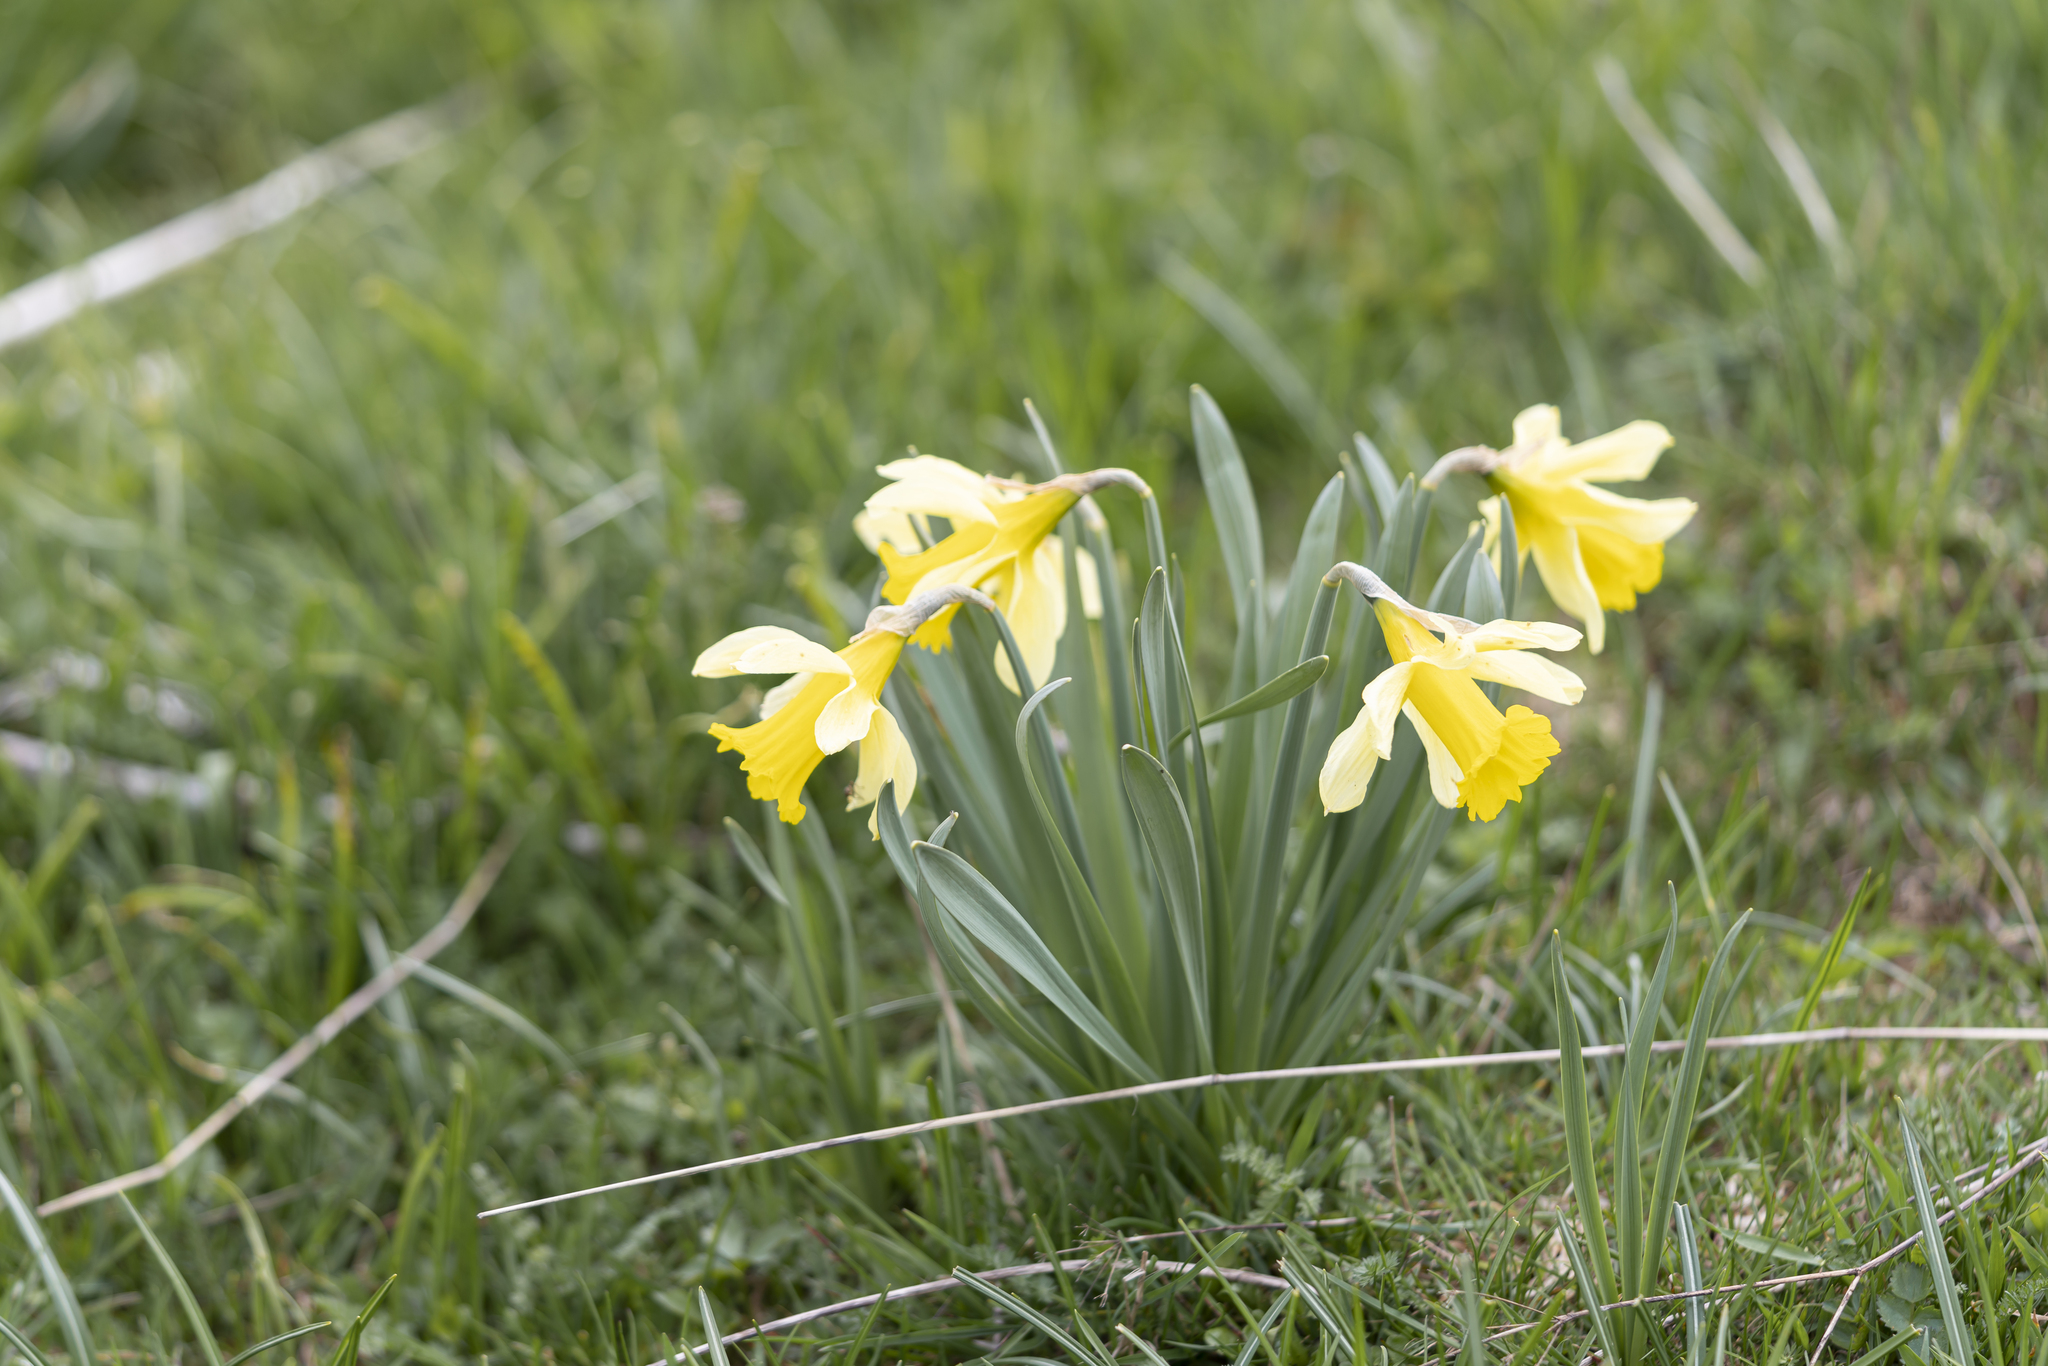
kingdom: Plantae
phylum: Tracheophyta
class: Liliopsida
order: Asparagales
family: Amaryllidaceae
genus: Narcissus
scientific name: Narcissus pseudonarcissus
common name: Daffodil
